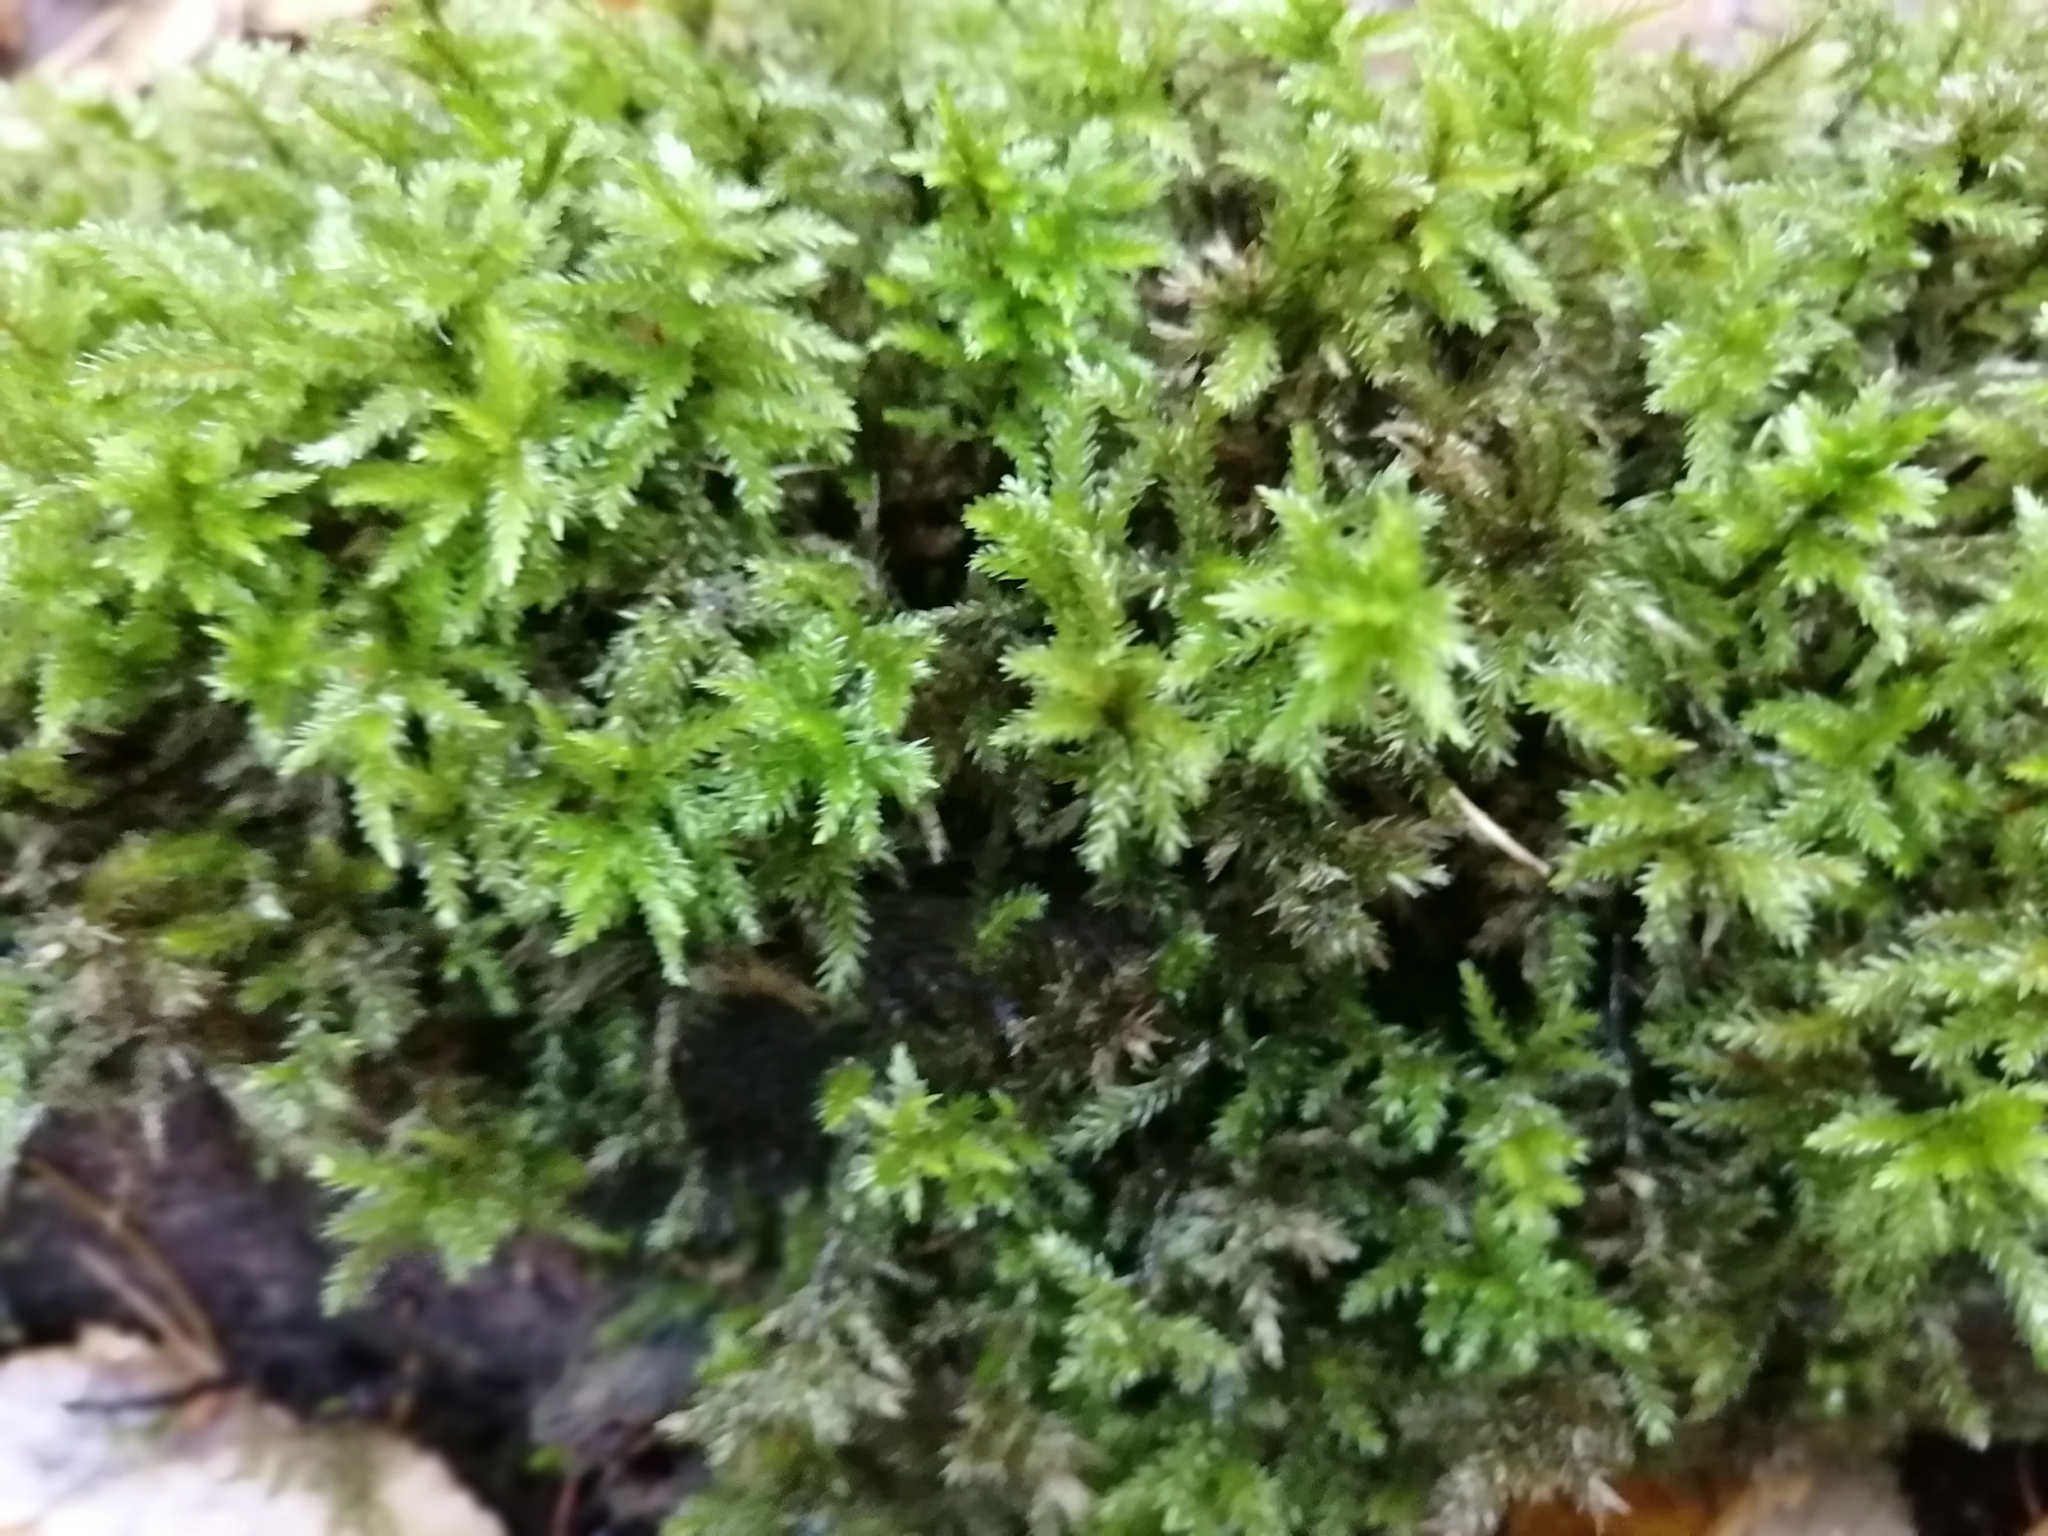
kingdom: Plantae
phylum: Bryophyta
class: Bryopsida
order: Hypnales
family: Climaciaceae
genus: Climacium
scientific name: Climacium dendroides
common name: Northern tree moss
